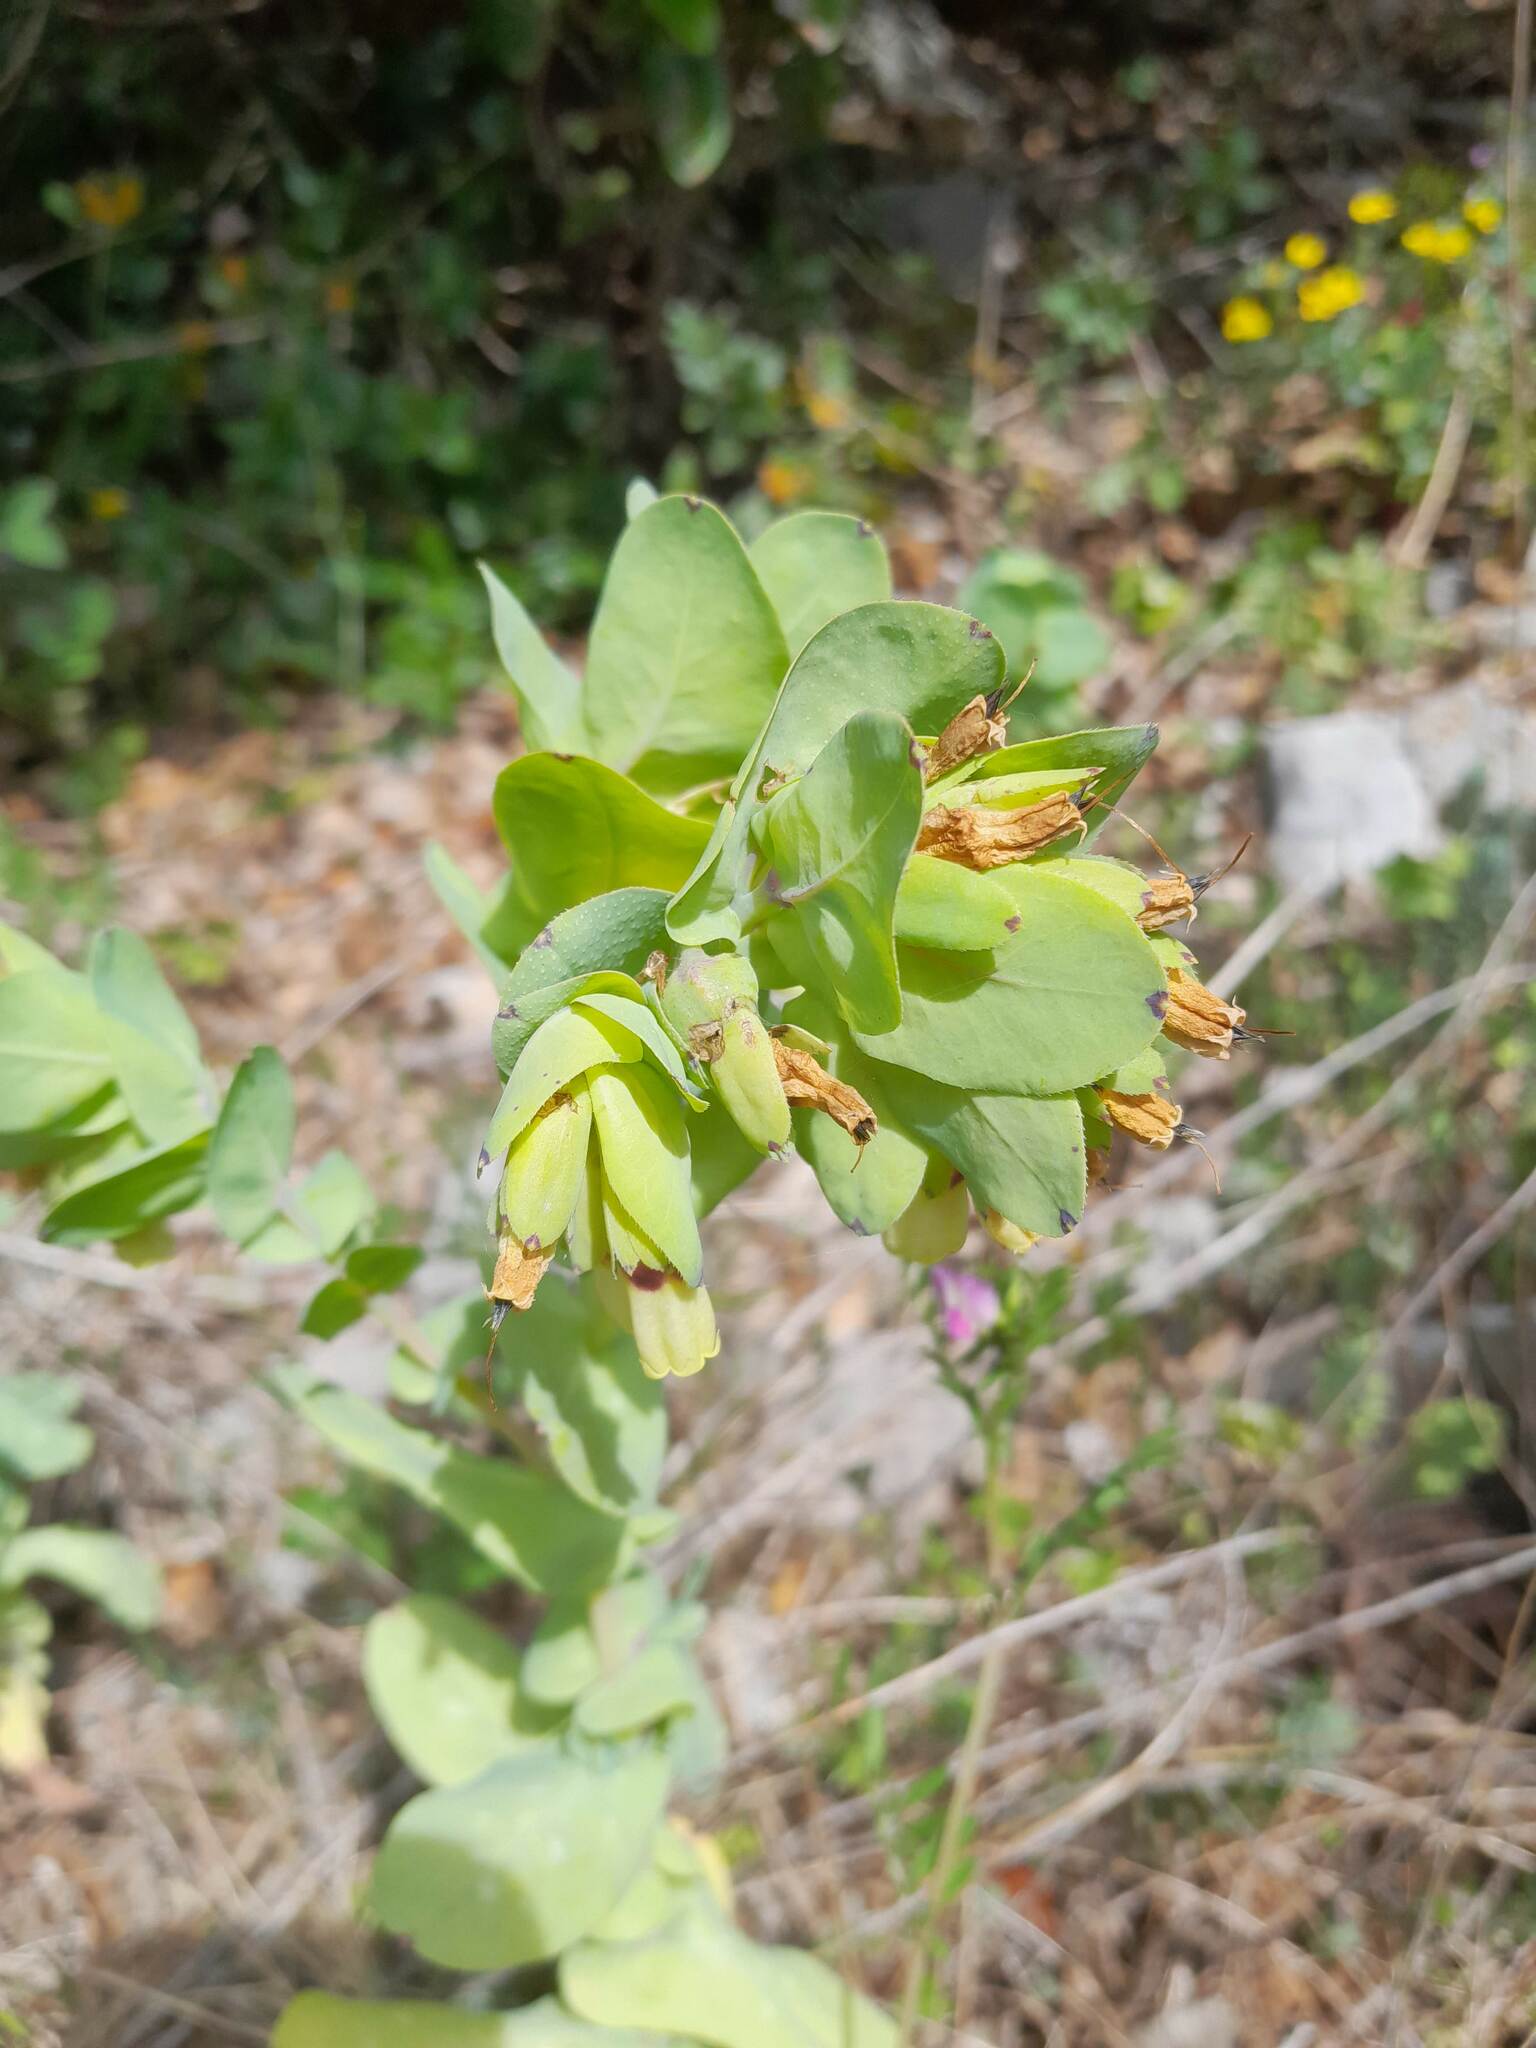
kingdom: Plantae
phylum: Tracheophyta
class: Magnoliopsida
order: Boraginales
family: Boraginaceae
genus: Cerinthe
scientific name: Cerinthe major
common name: Greater honeywort
